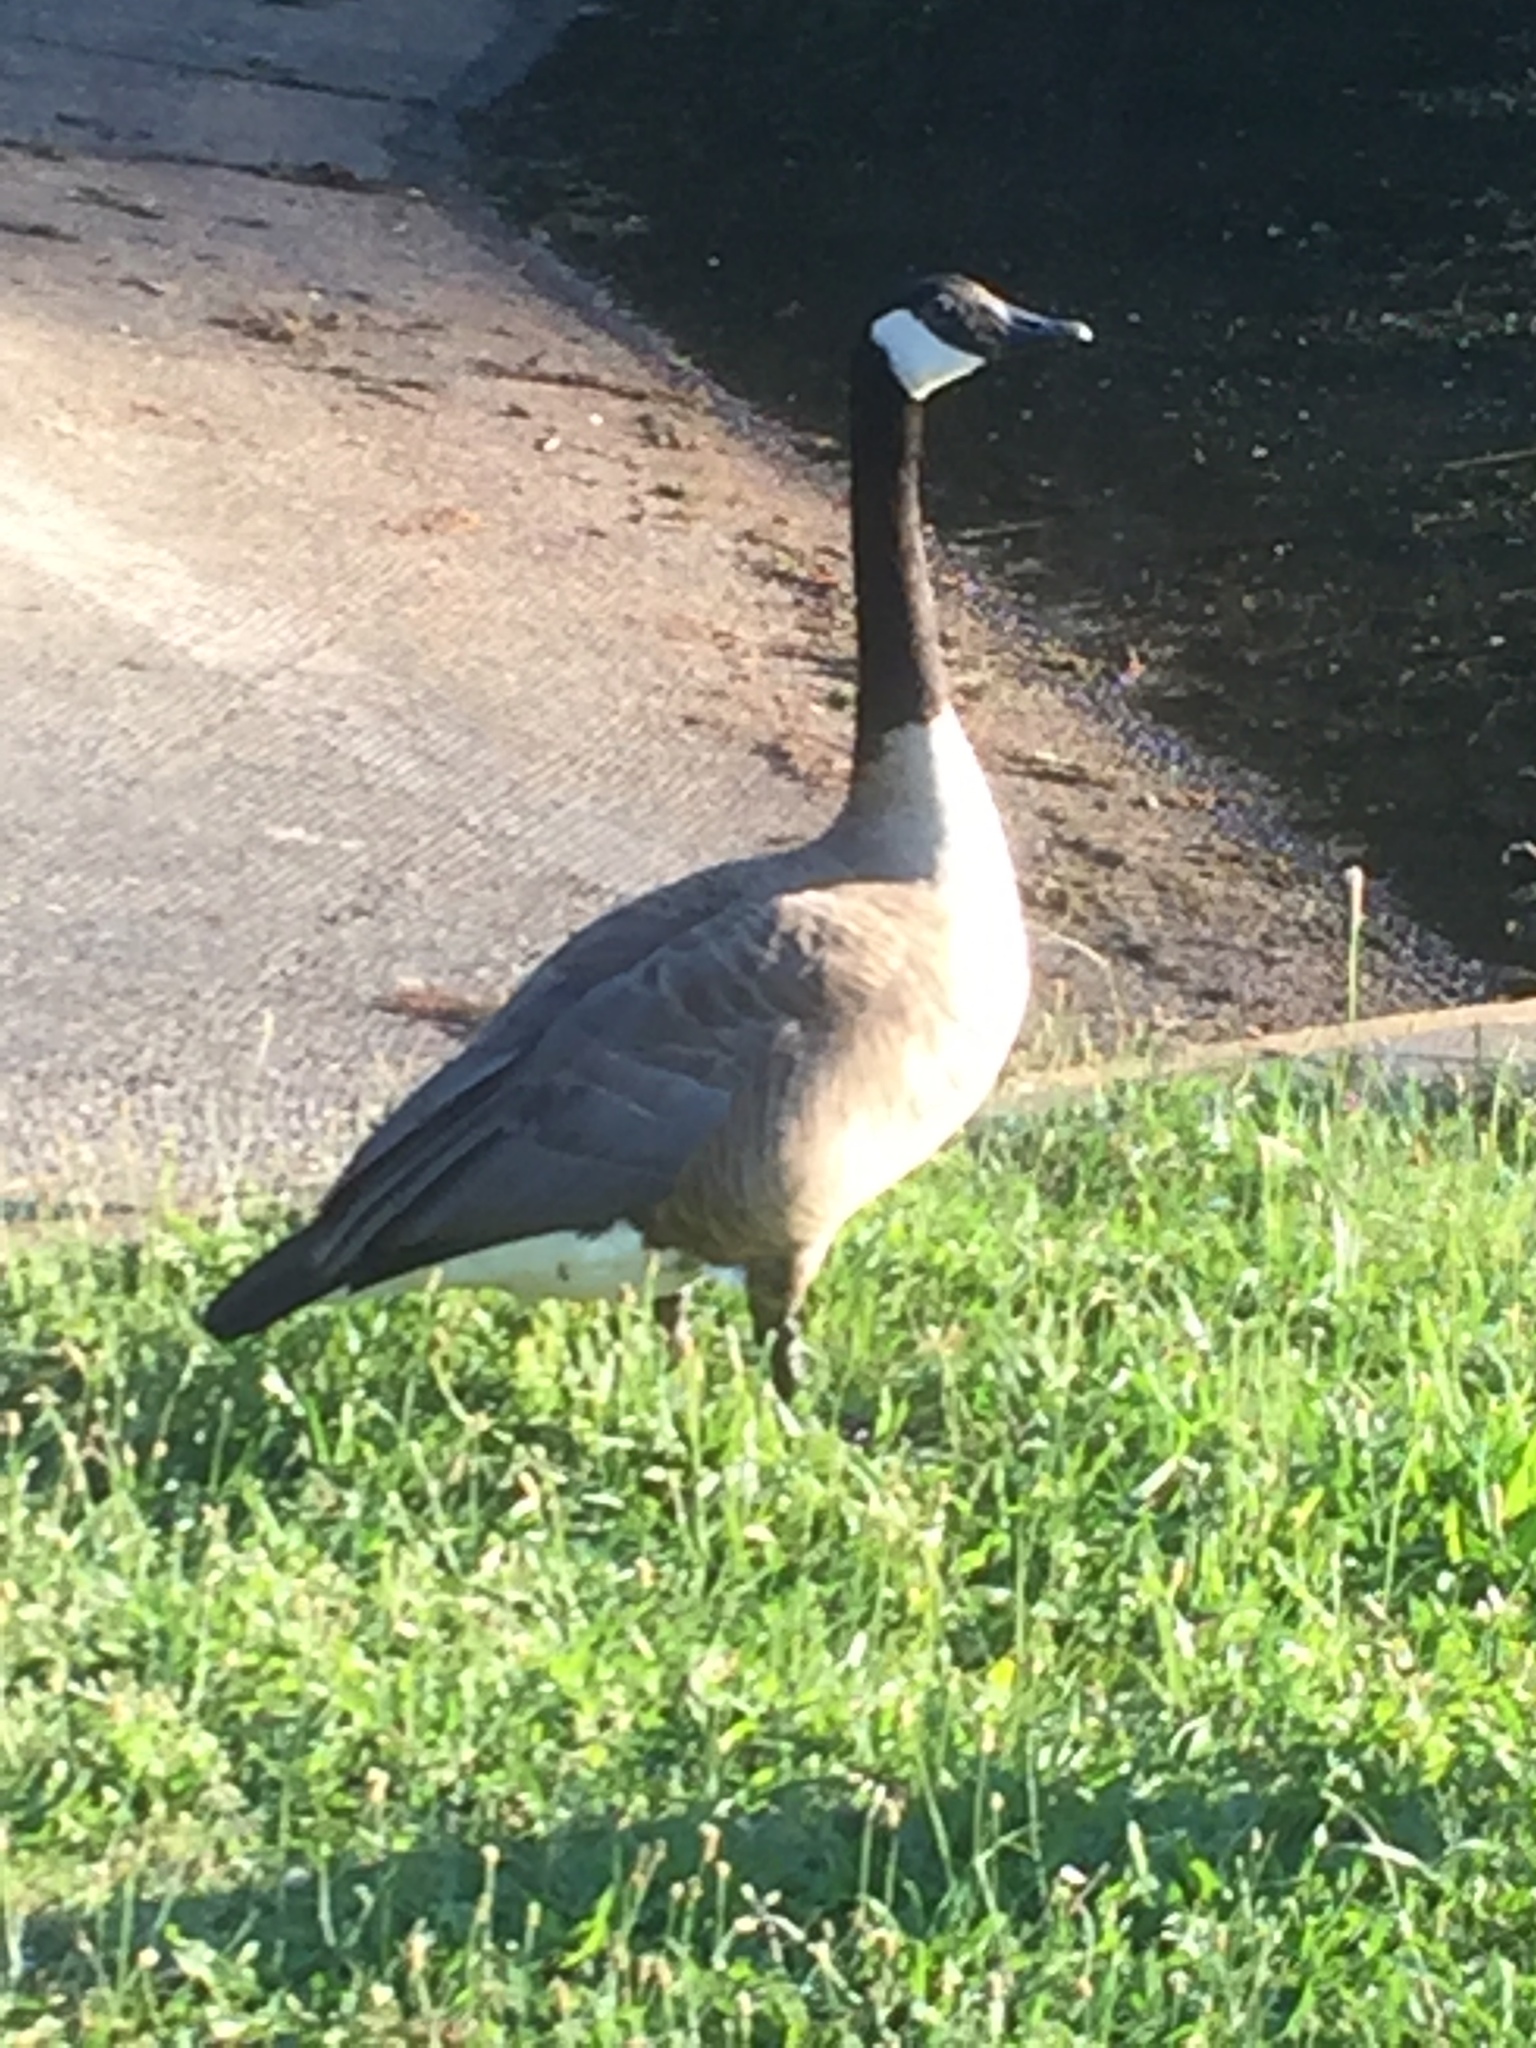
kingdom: Animalia
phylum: Chordata
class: Aves
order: Anseriformes
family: Anatidae
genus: Branta
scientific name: Branta canadensis
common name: Canada goose
